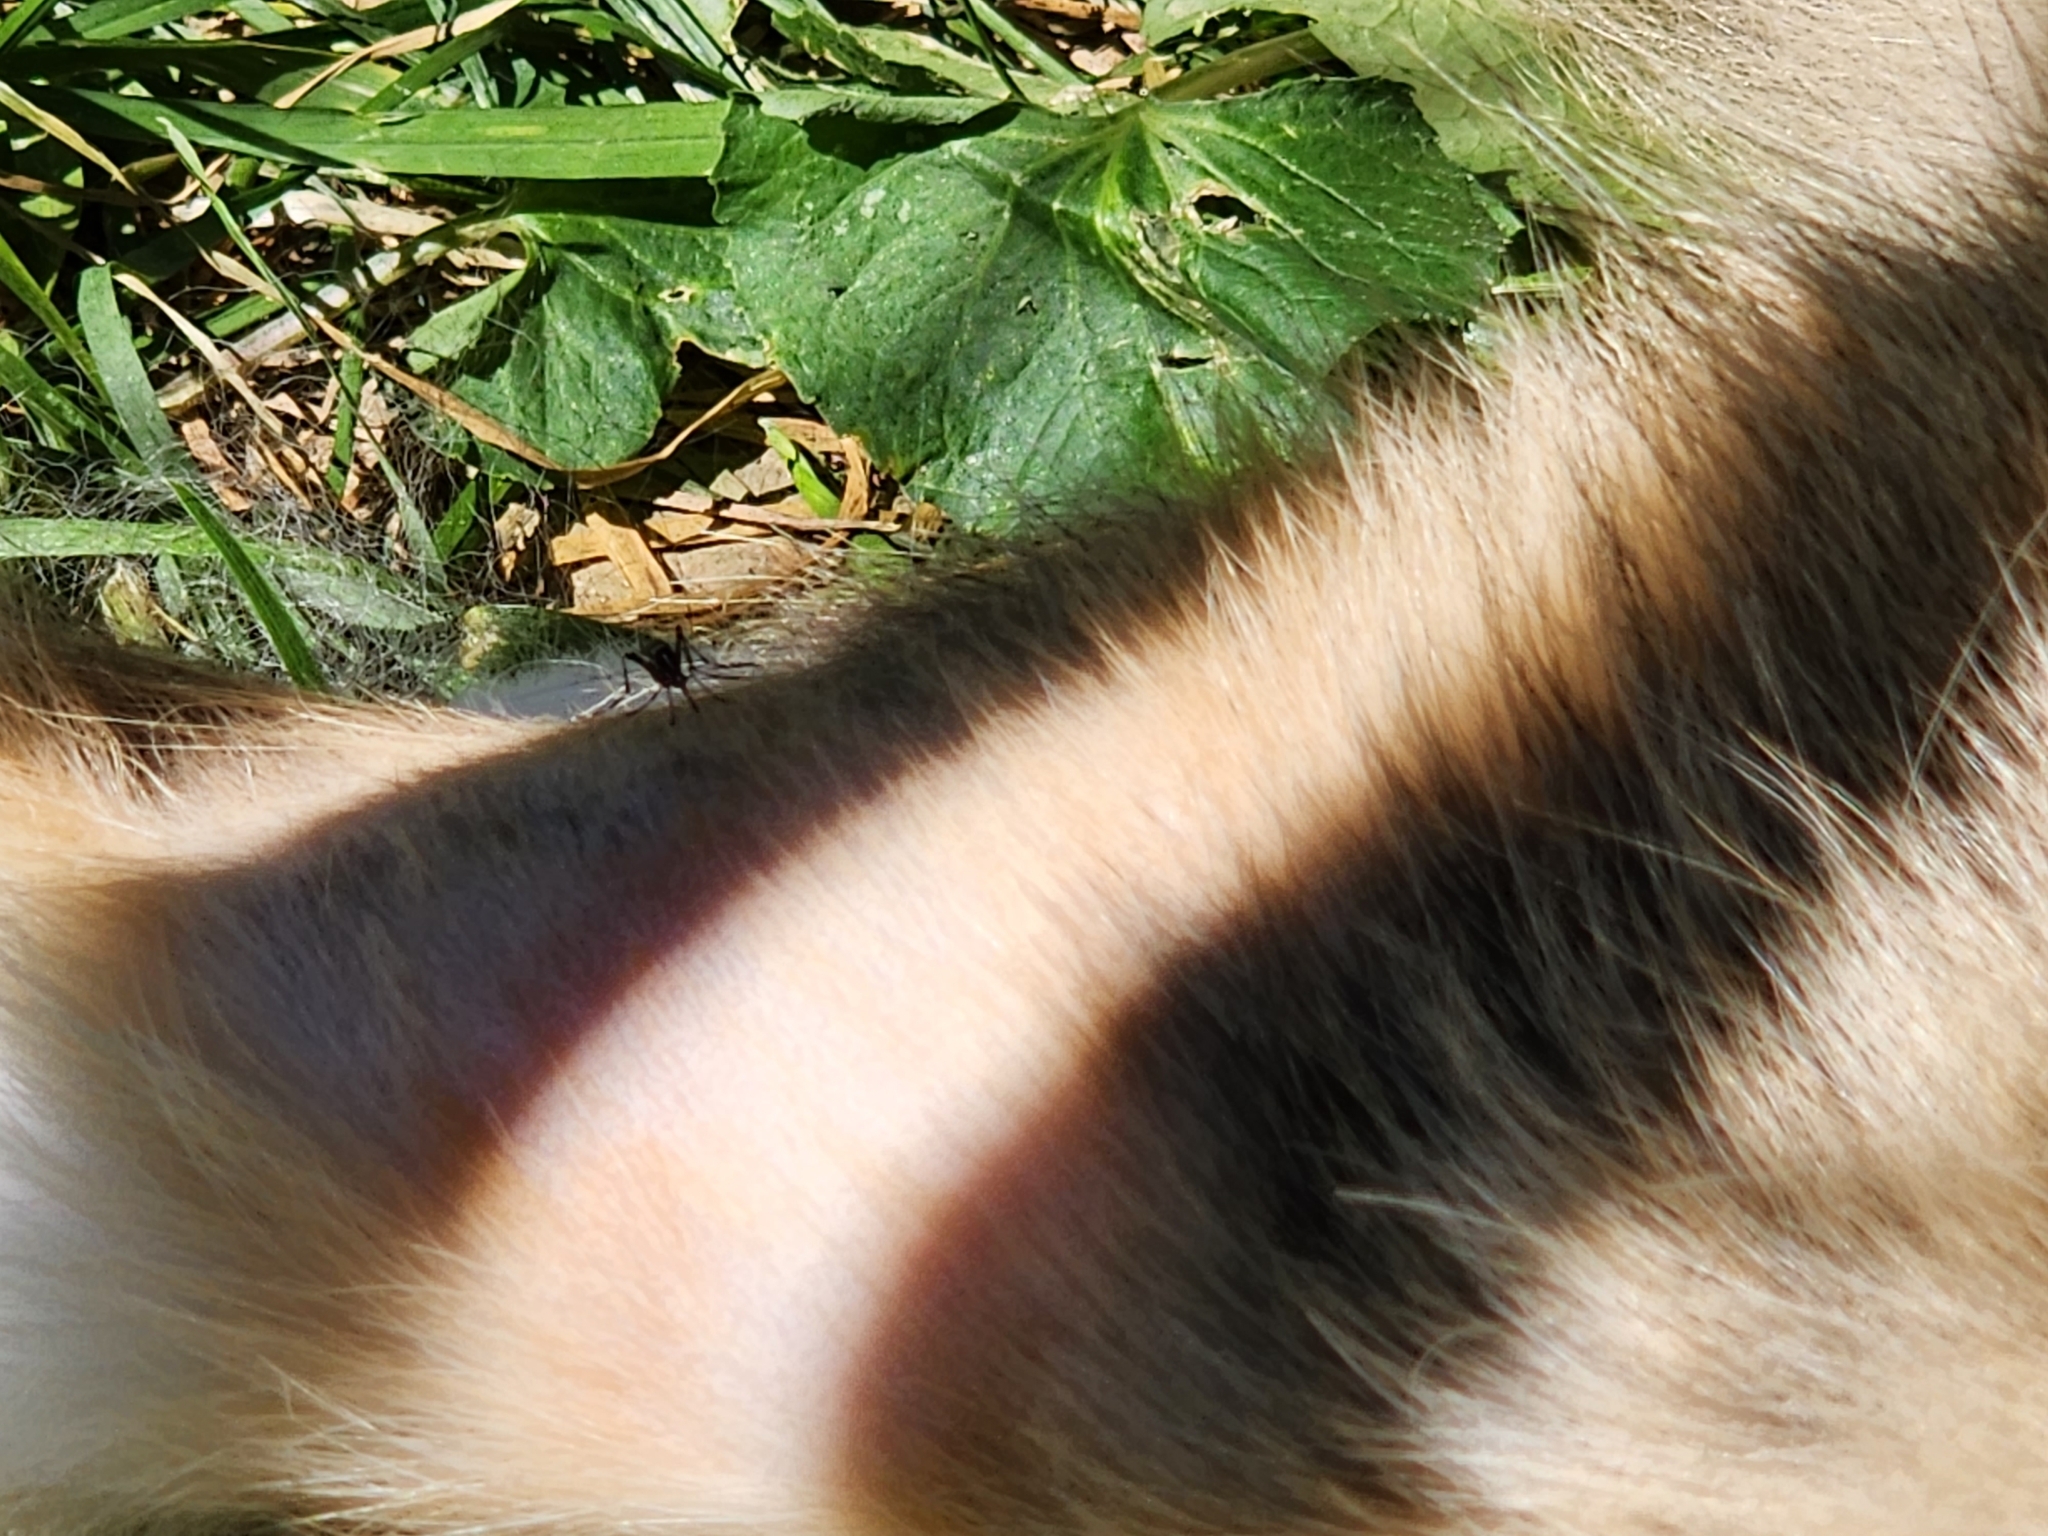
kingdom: Animalia
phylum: Arthropoda
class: Insecta
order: Diptera
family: Culicidae
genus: Aedes
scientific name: Aedes albopictus
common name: Tiger mosquito
